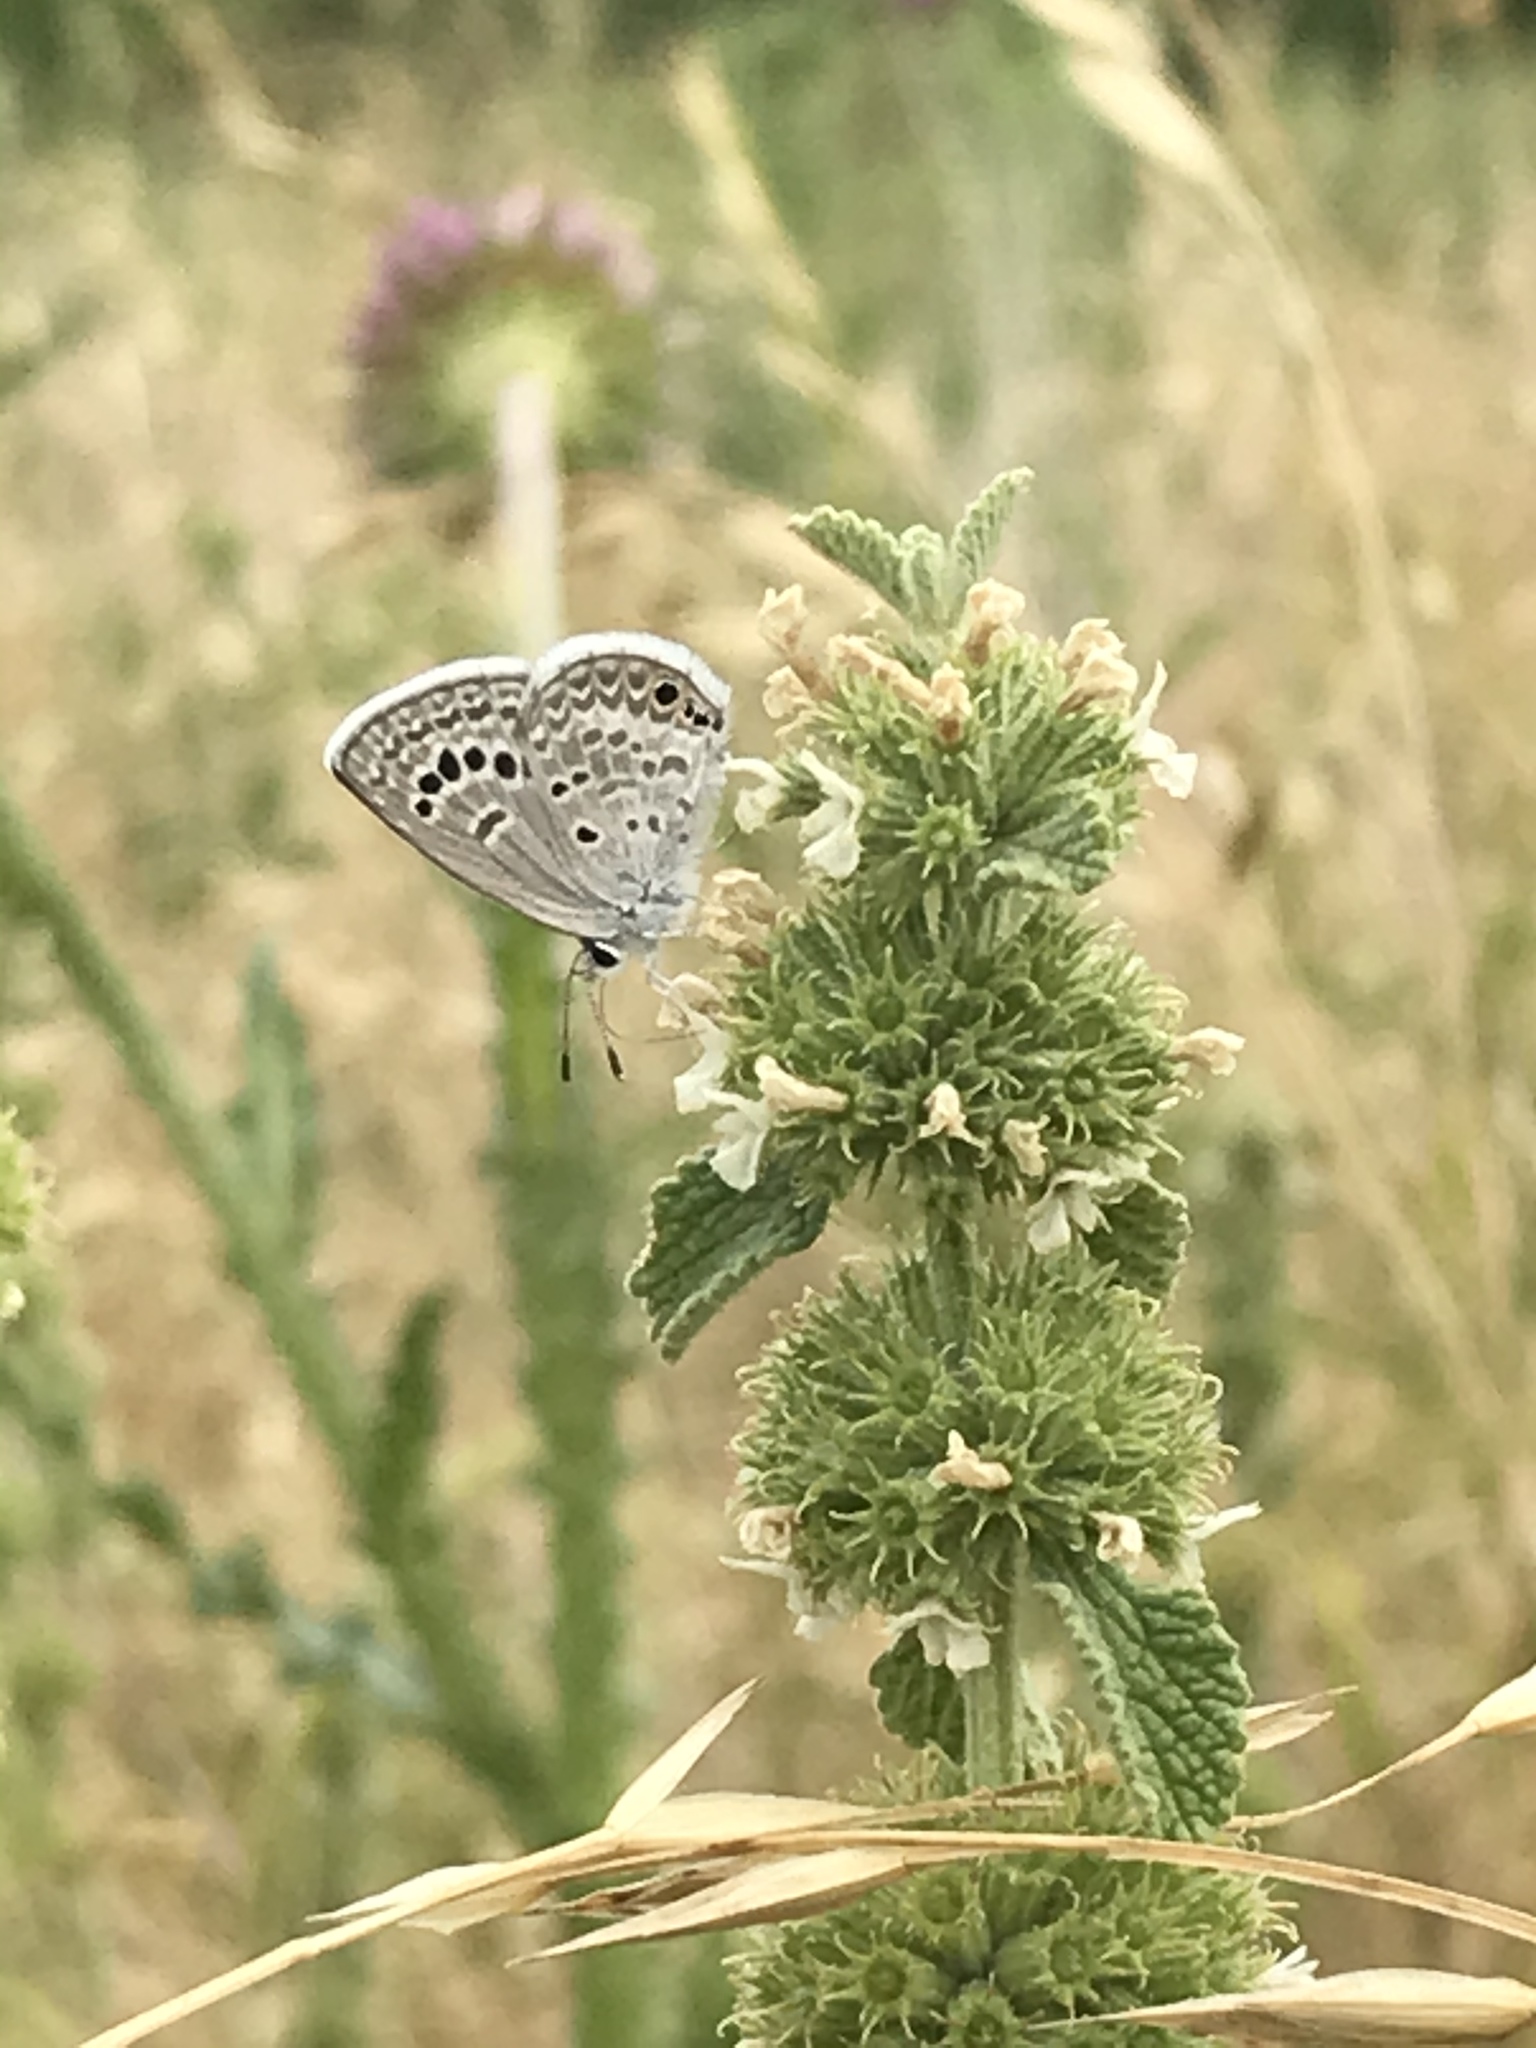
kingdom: Animalia
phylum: Arthropoda
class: Insecta
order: Lepidoptera
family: Lycaenidae
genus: Echinargus
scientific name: Echinargus isola
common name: Reakirt's blue
